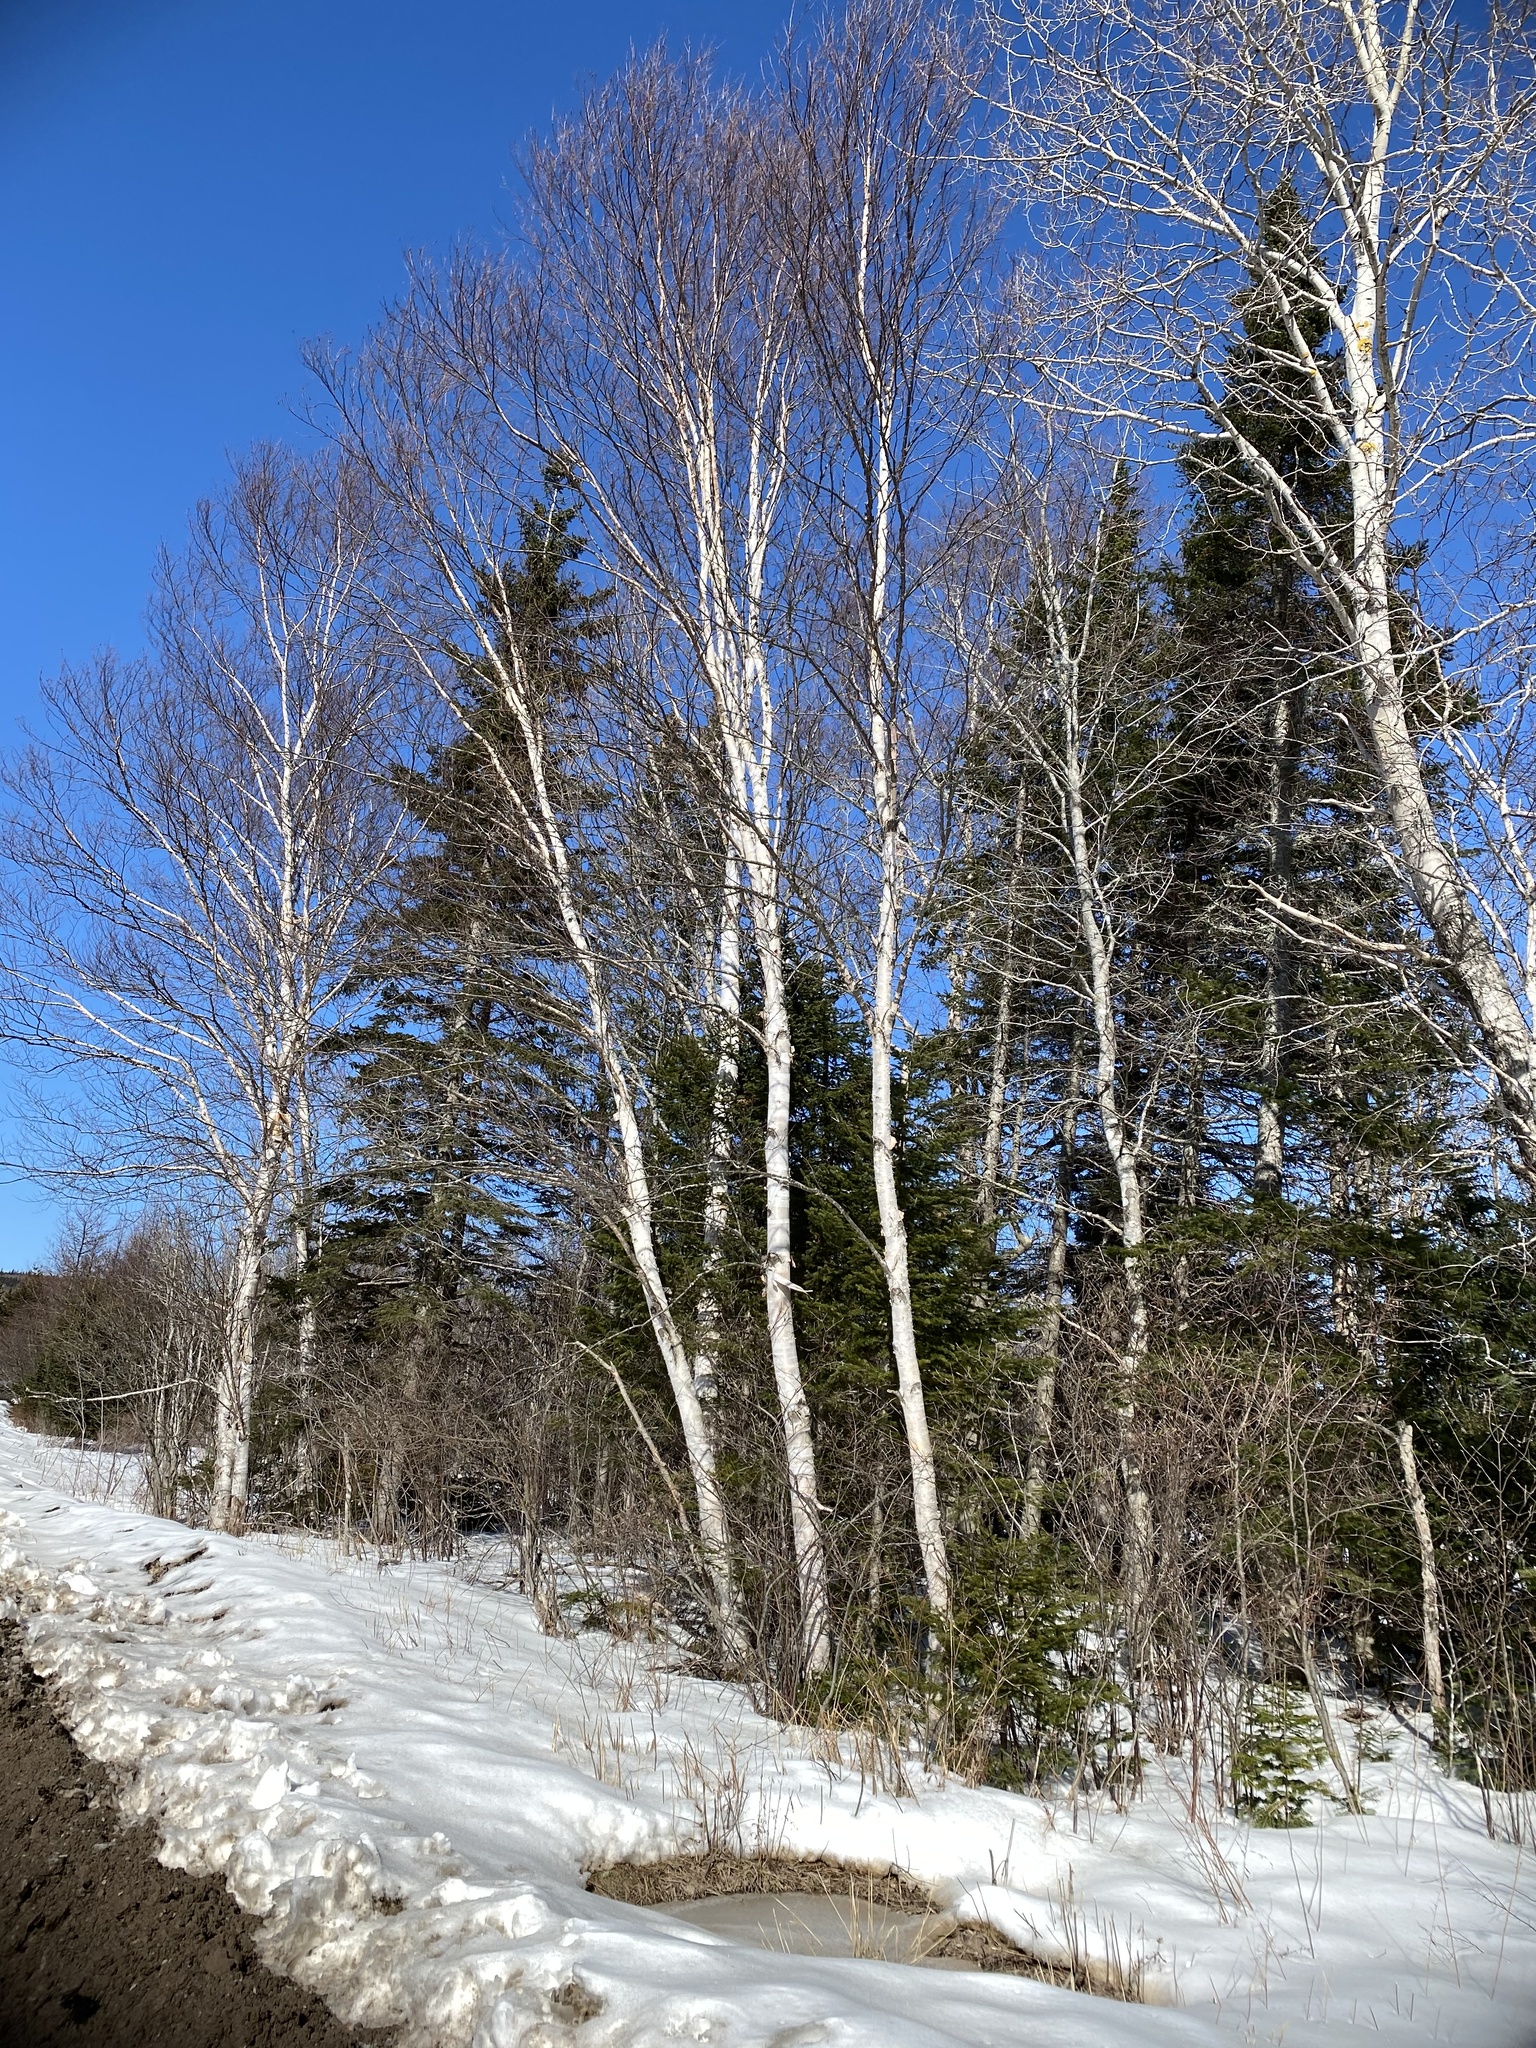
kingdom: Plantae
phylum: Tracheophyta
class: Magnoliopsida
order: Fagales
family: Betulaceae
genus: Betula
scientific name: Betula papyrifera
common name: Paper birch
